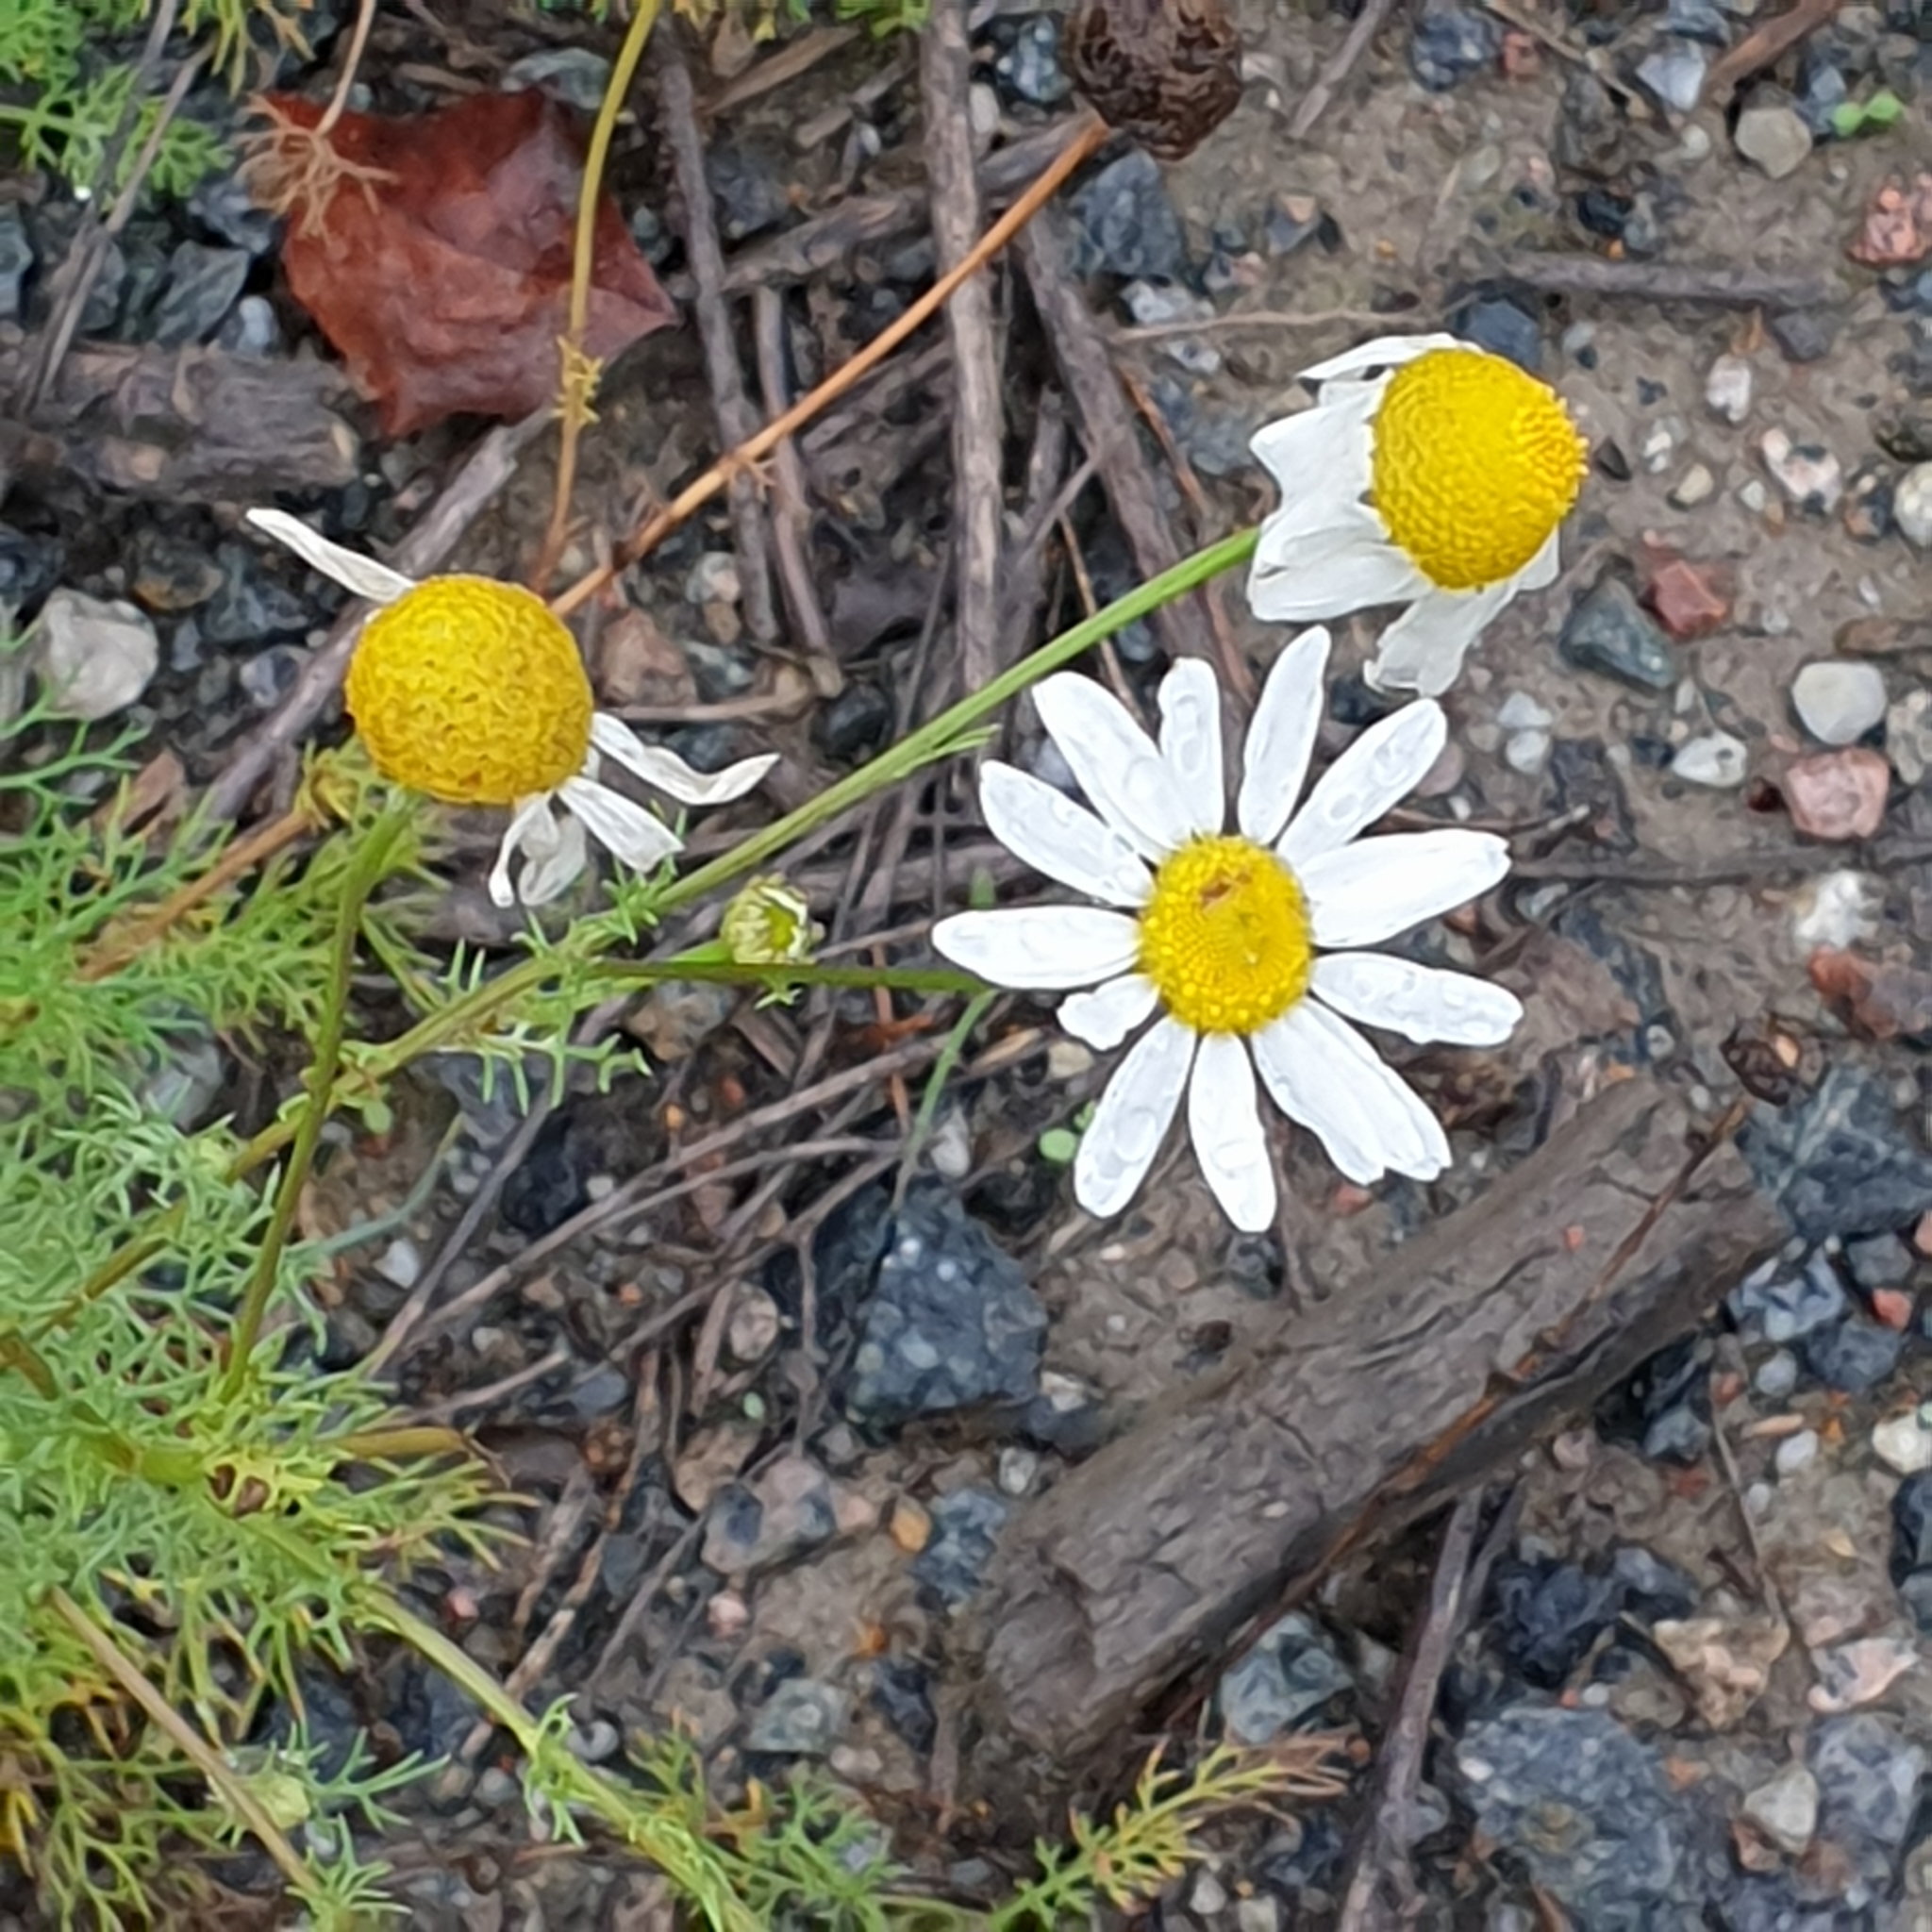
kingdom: Plantae
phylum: Tracheophyta
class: Magnoliopsida
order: Asterales
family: Asteraceae
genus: Tripleurospermum
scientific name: Tripleurospermum inodorum
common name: Scentless mayweed
